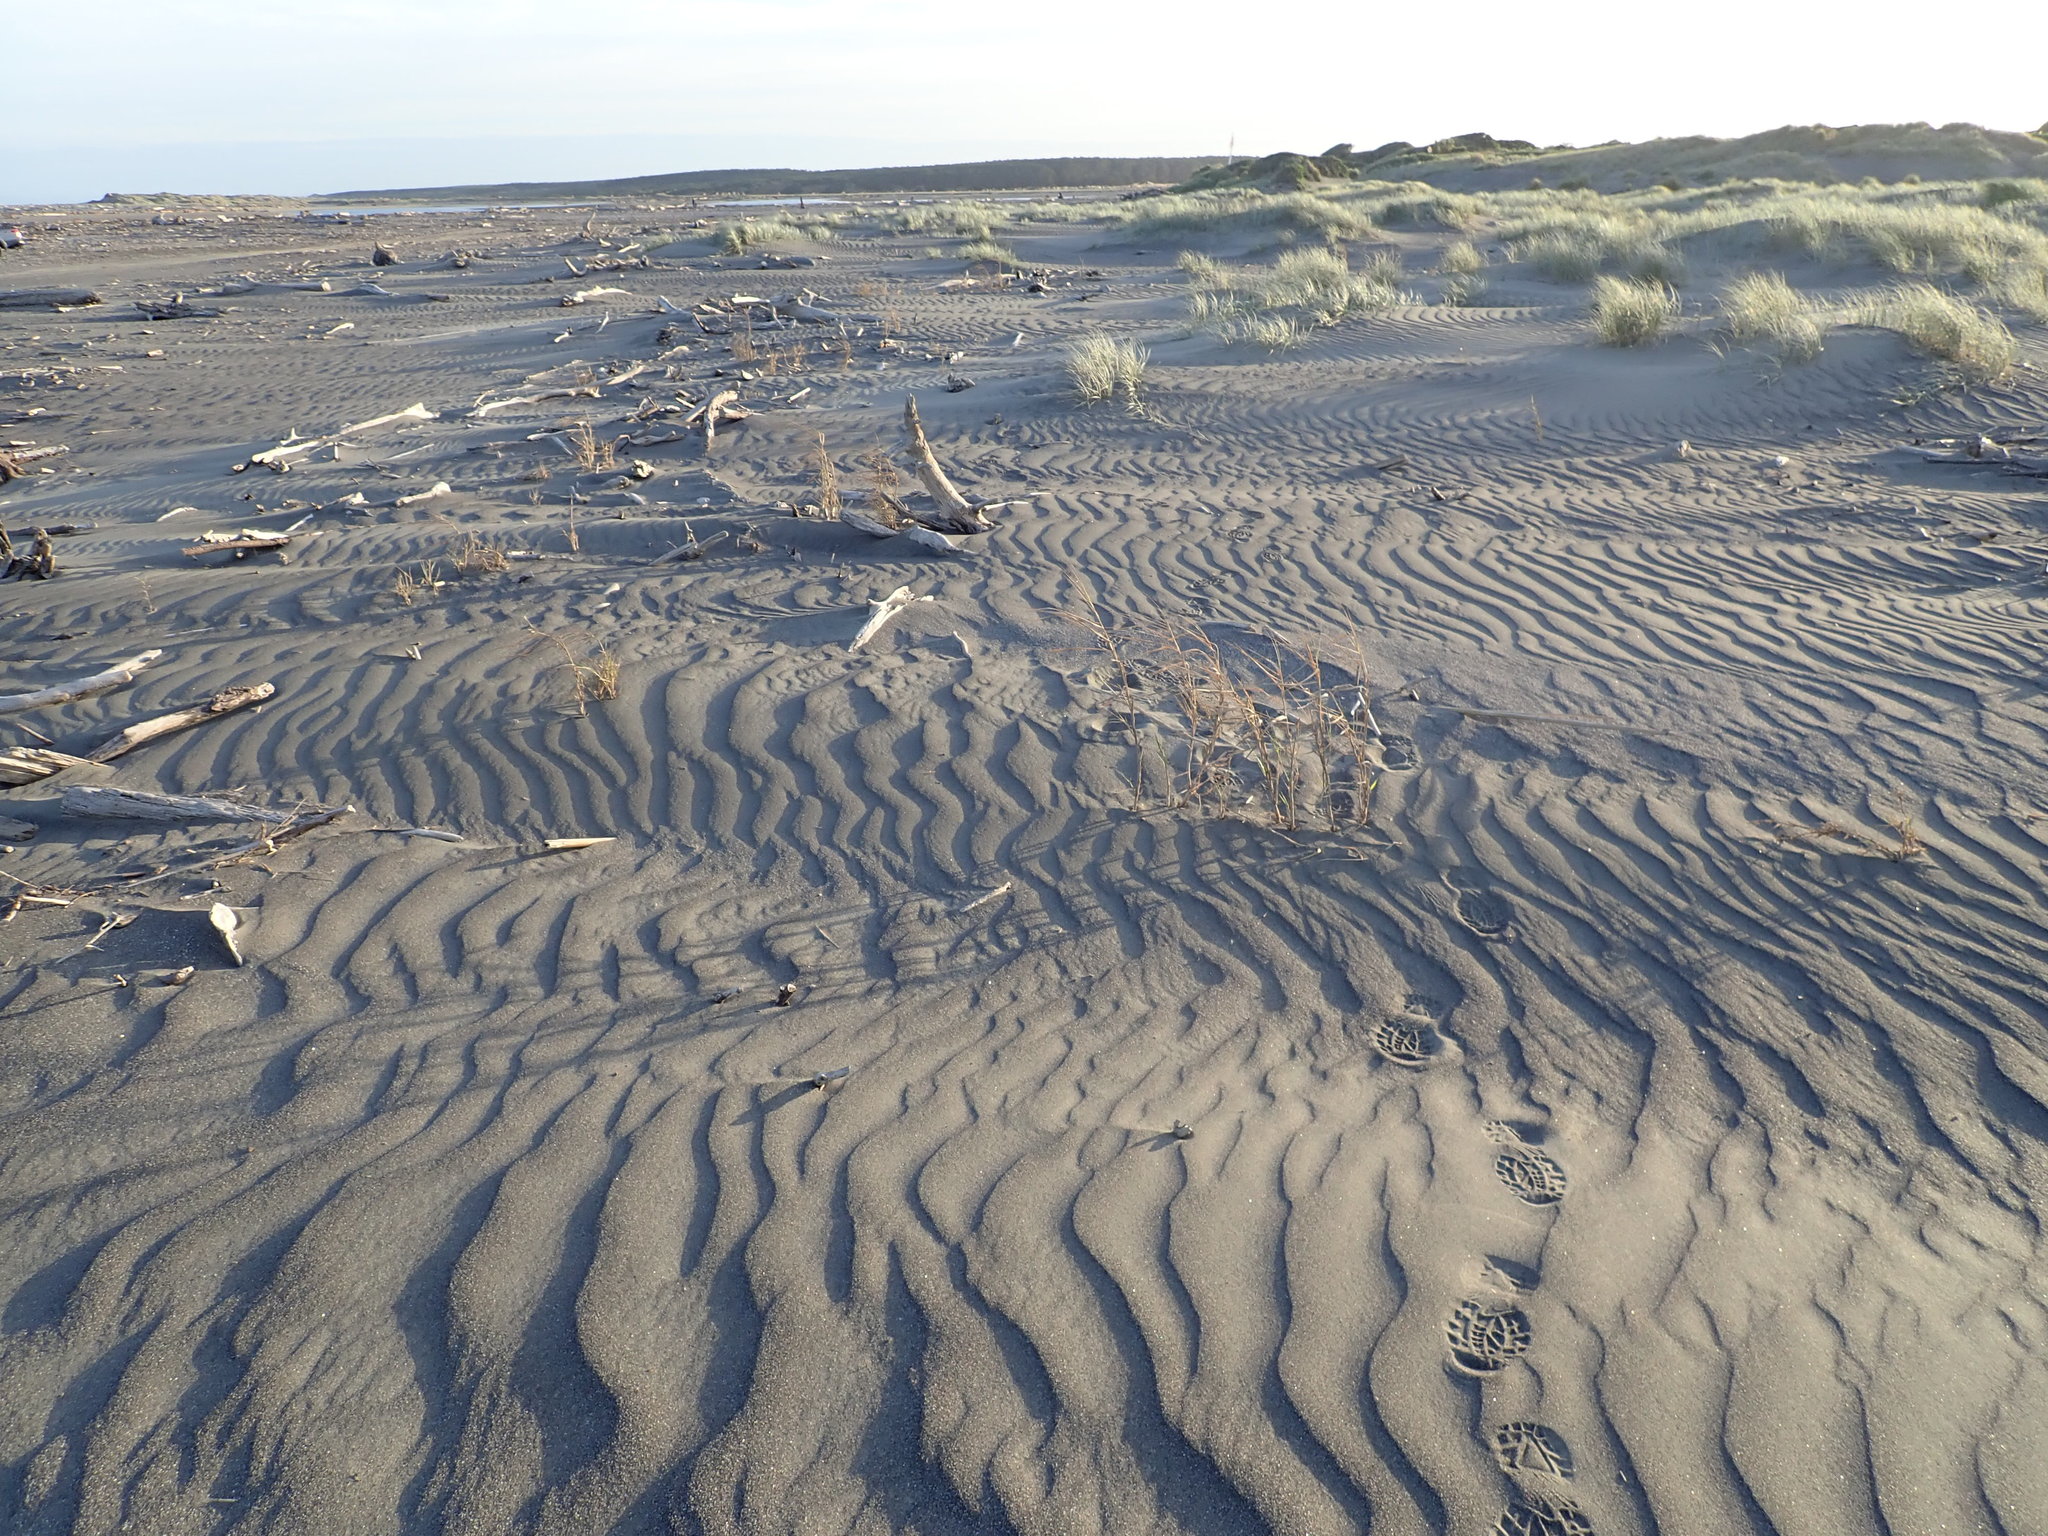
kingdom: Plantae
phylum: Tracheophyta
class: Liliopsida
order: Poales
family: Poaceae
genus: Phragmites
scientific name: Phragmites karka
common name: Tropical reed
